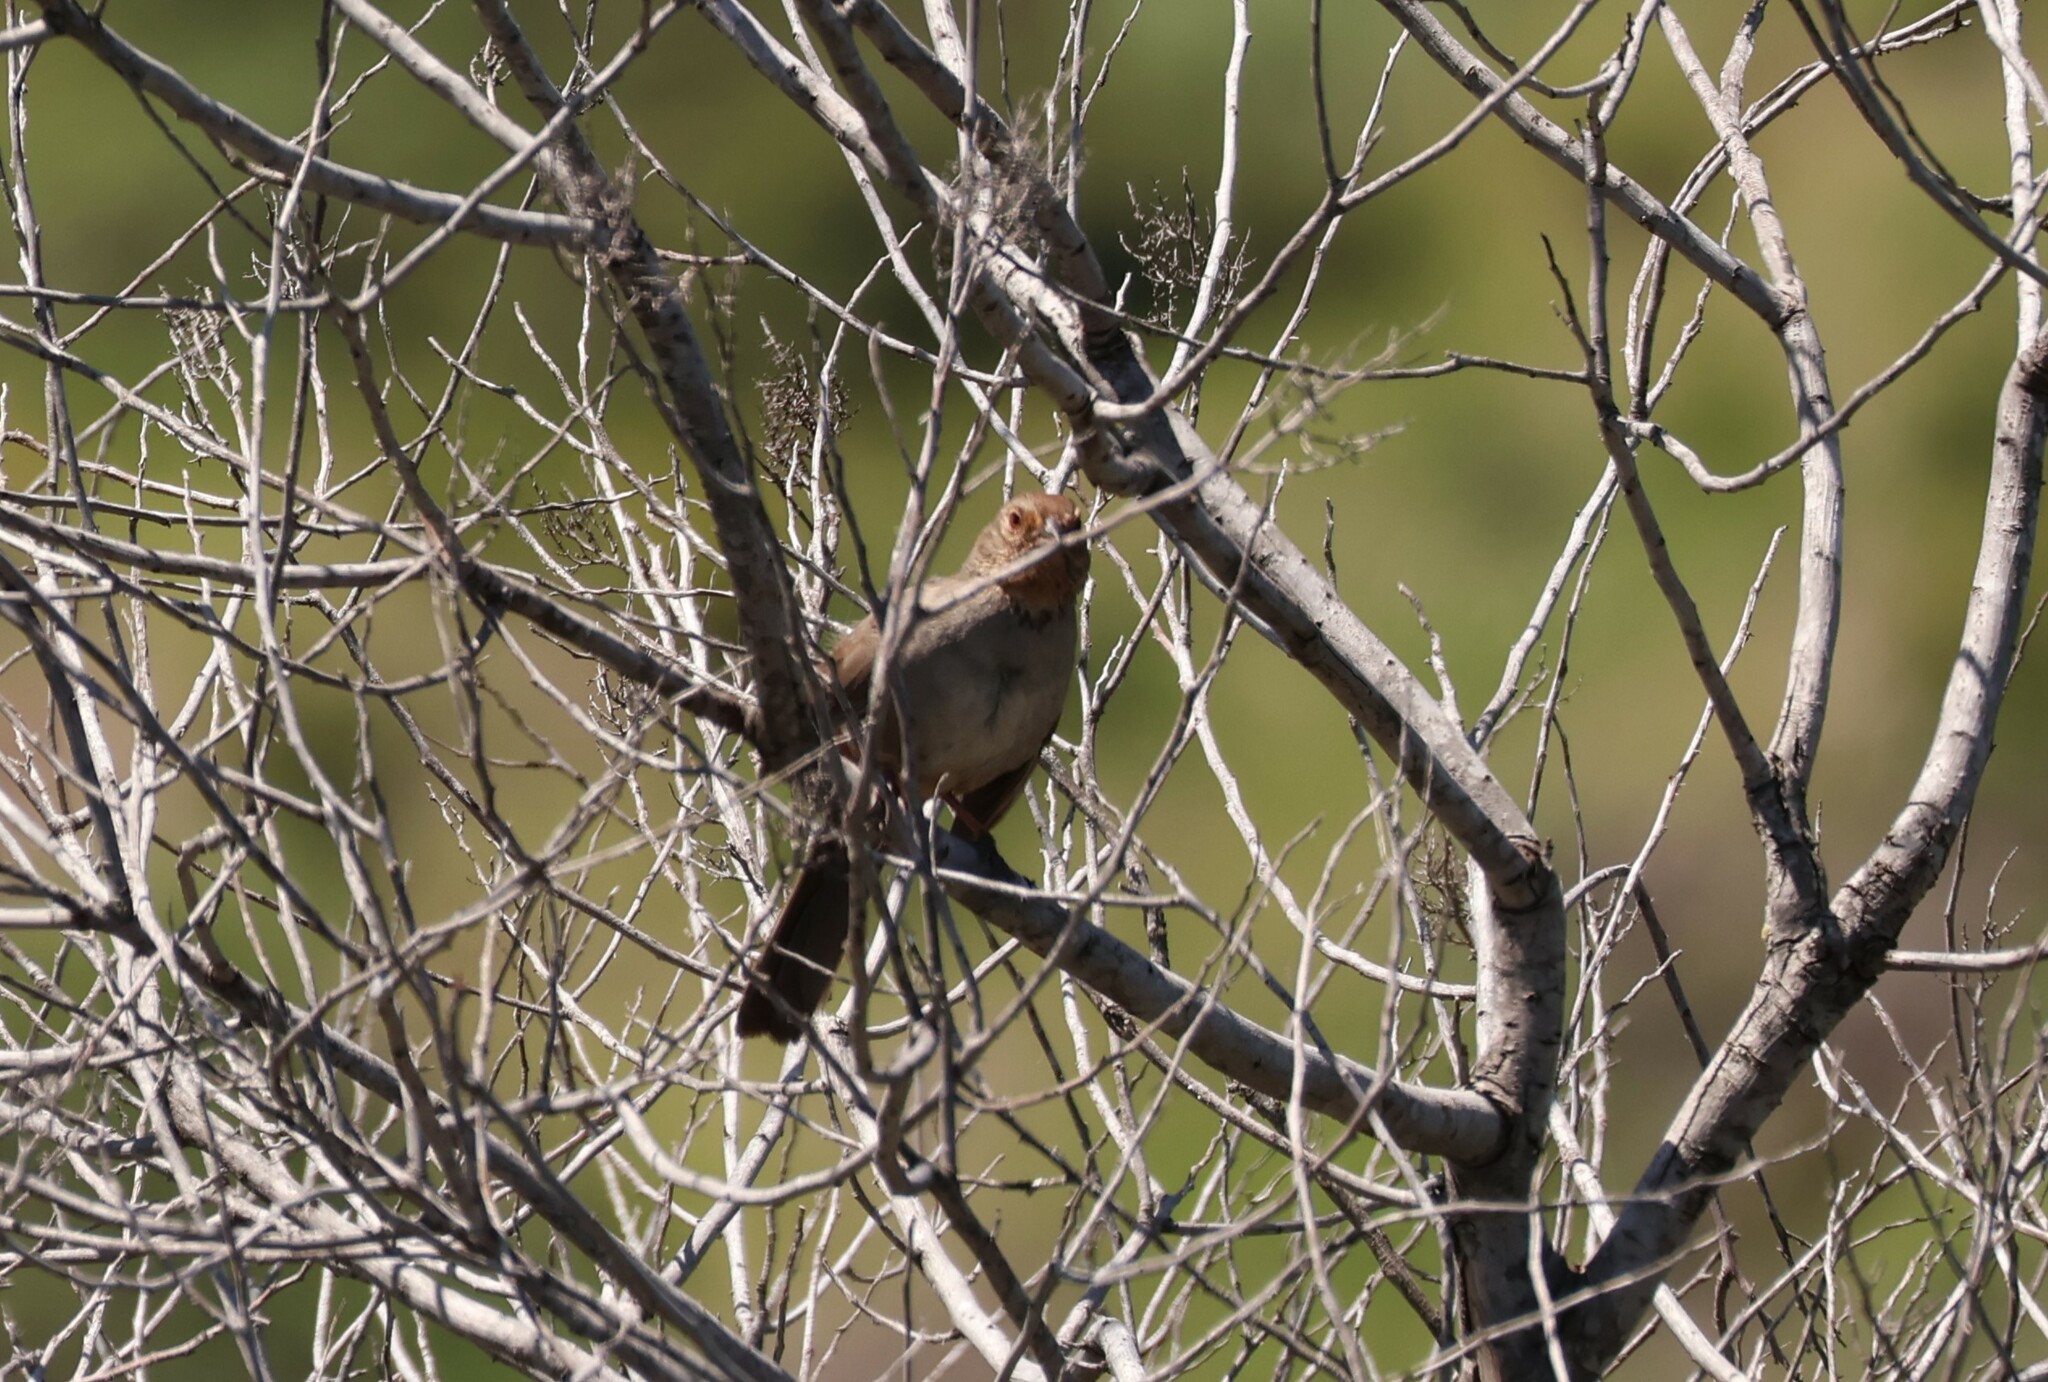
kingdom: Animalia
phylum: Chordata
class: Aves
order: Passeriformes
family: Passerellidae
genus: Melozone
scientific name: Melozone crissalis
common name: California towhee
